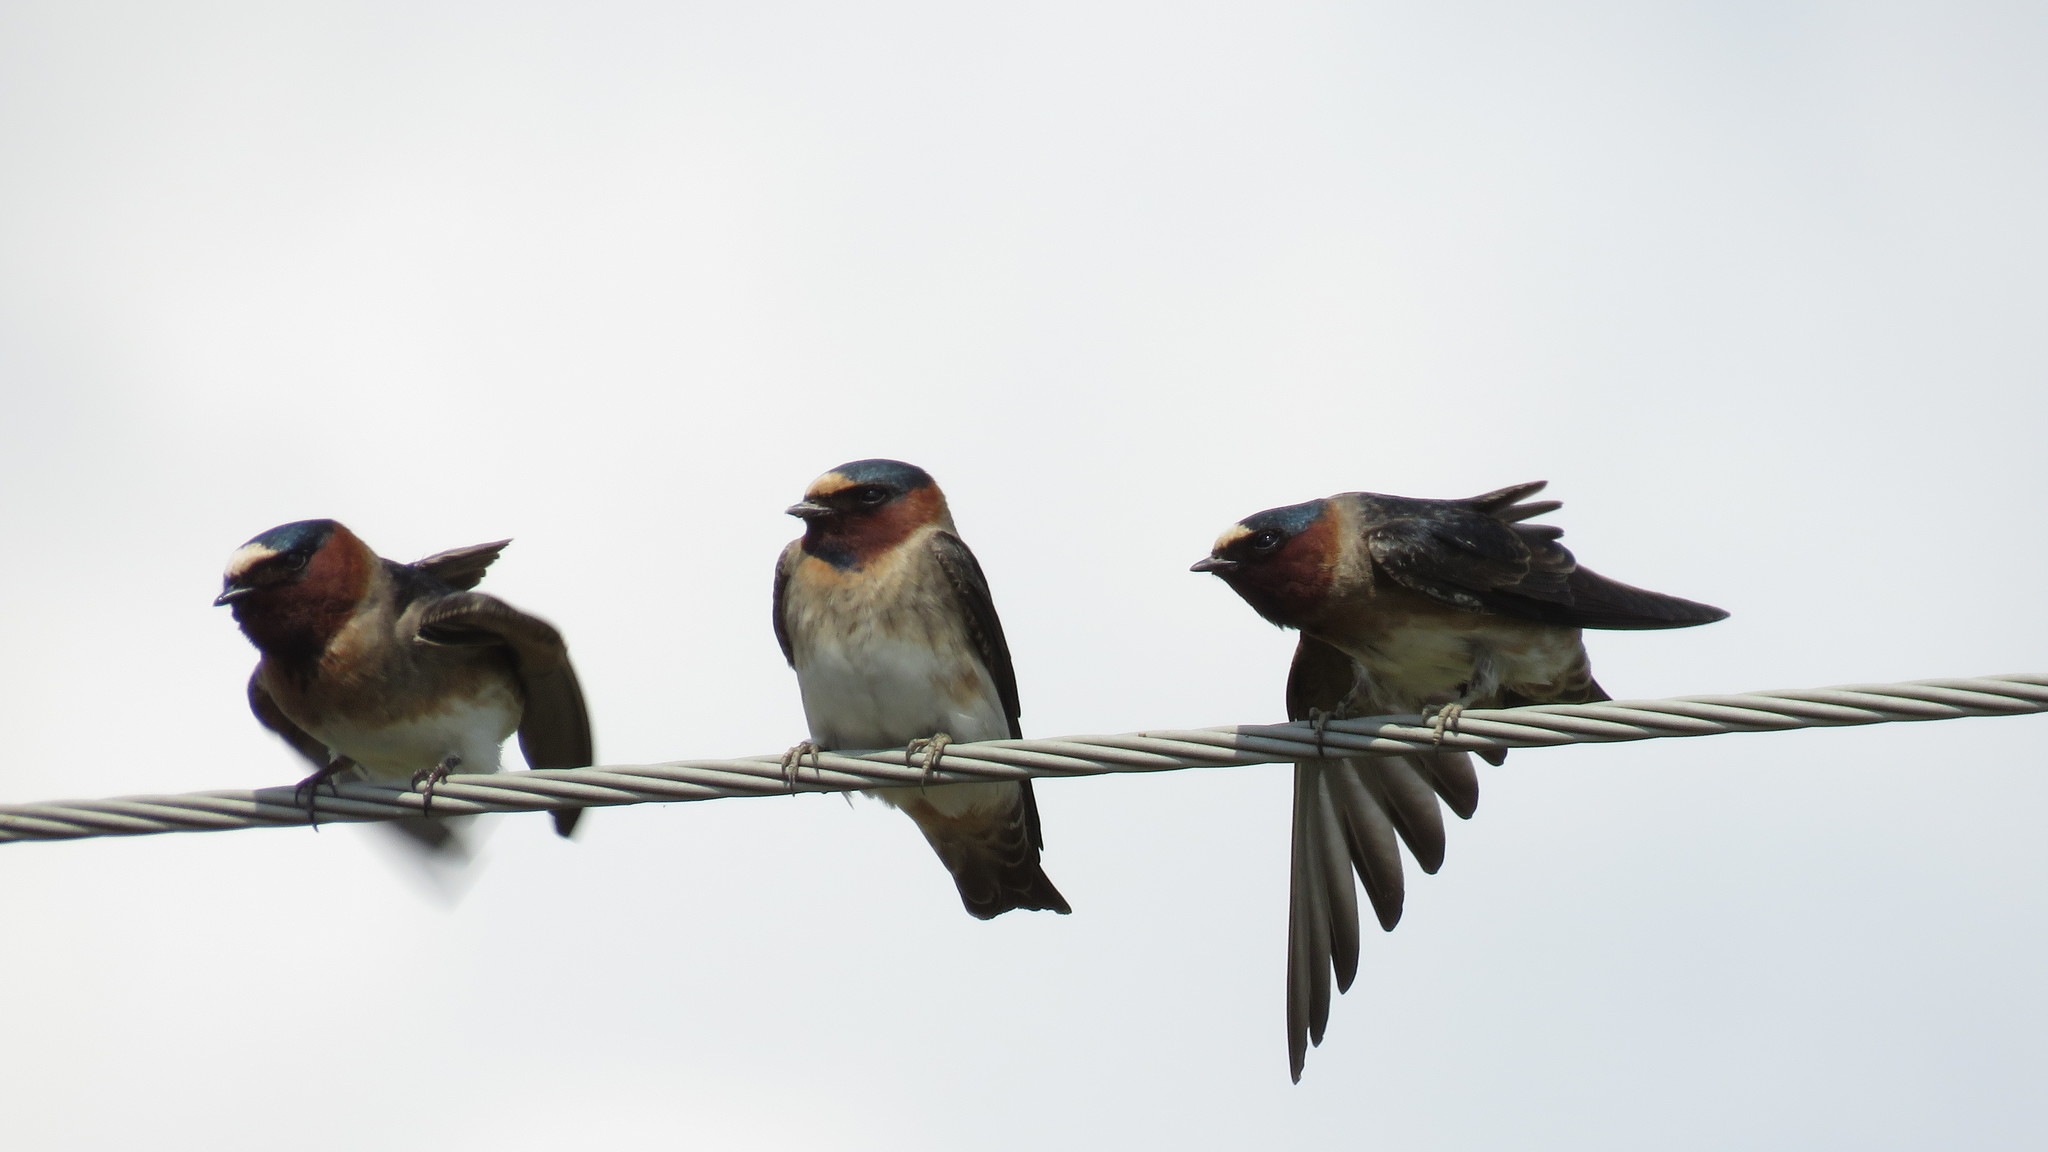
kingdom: Animalia
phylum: Chordata
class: Aves
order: Passeriformes
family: Hirundinidae
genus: Petrochelidon
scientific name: Petrochelidon pyrrhonota
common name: American cliff swallow
